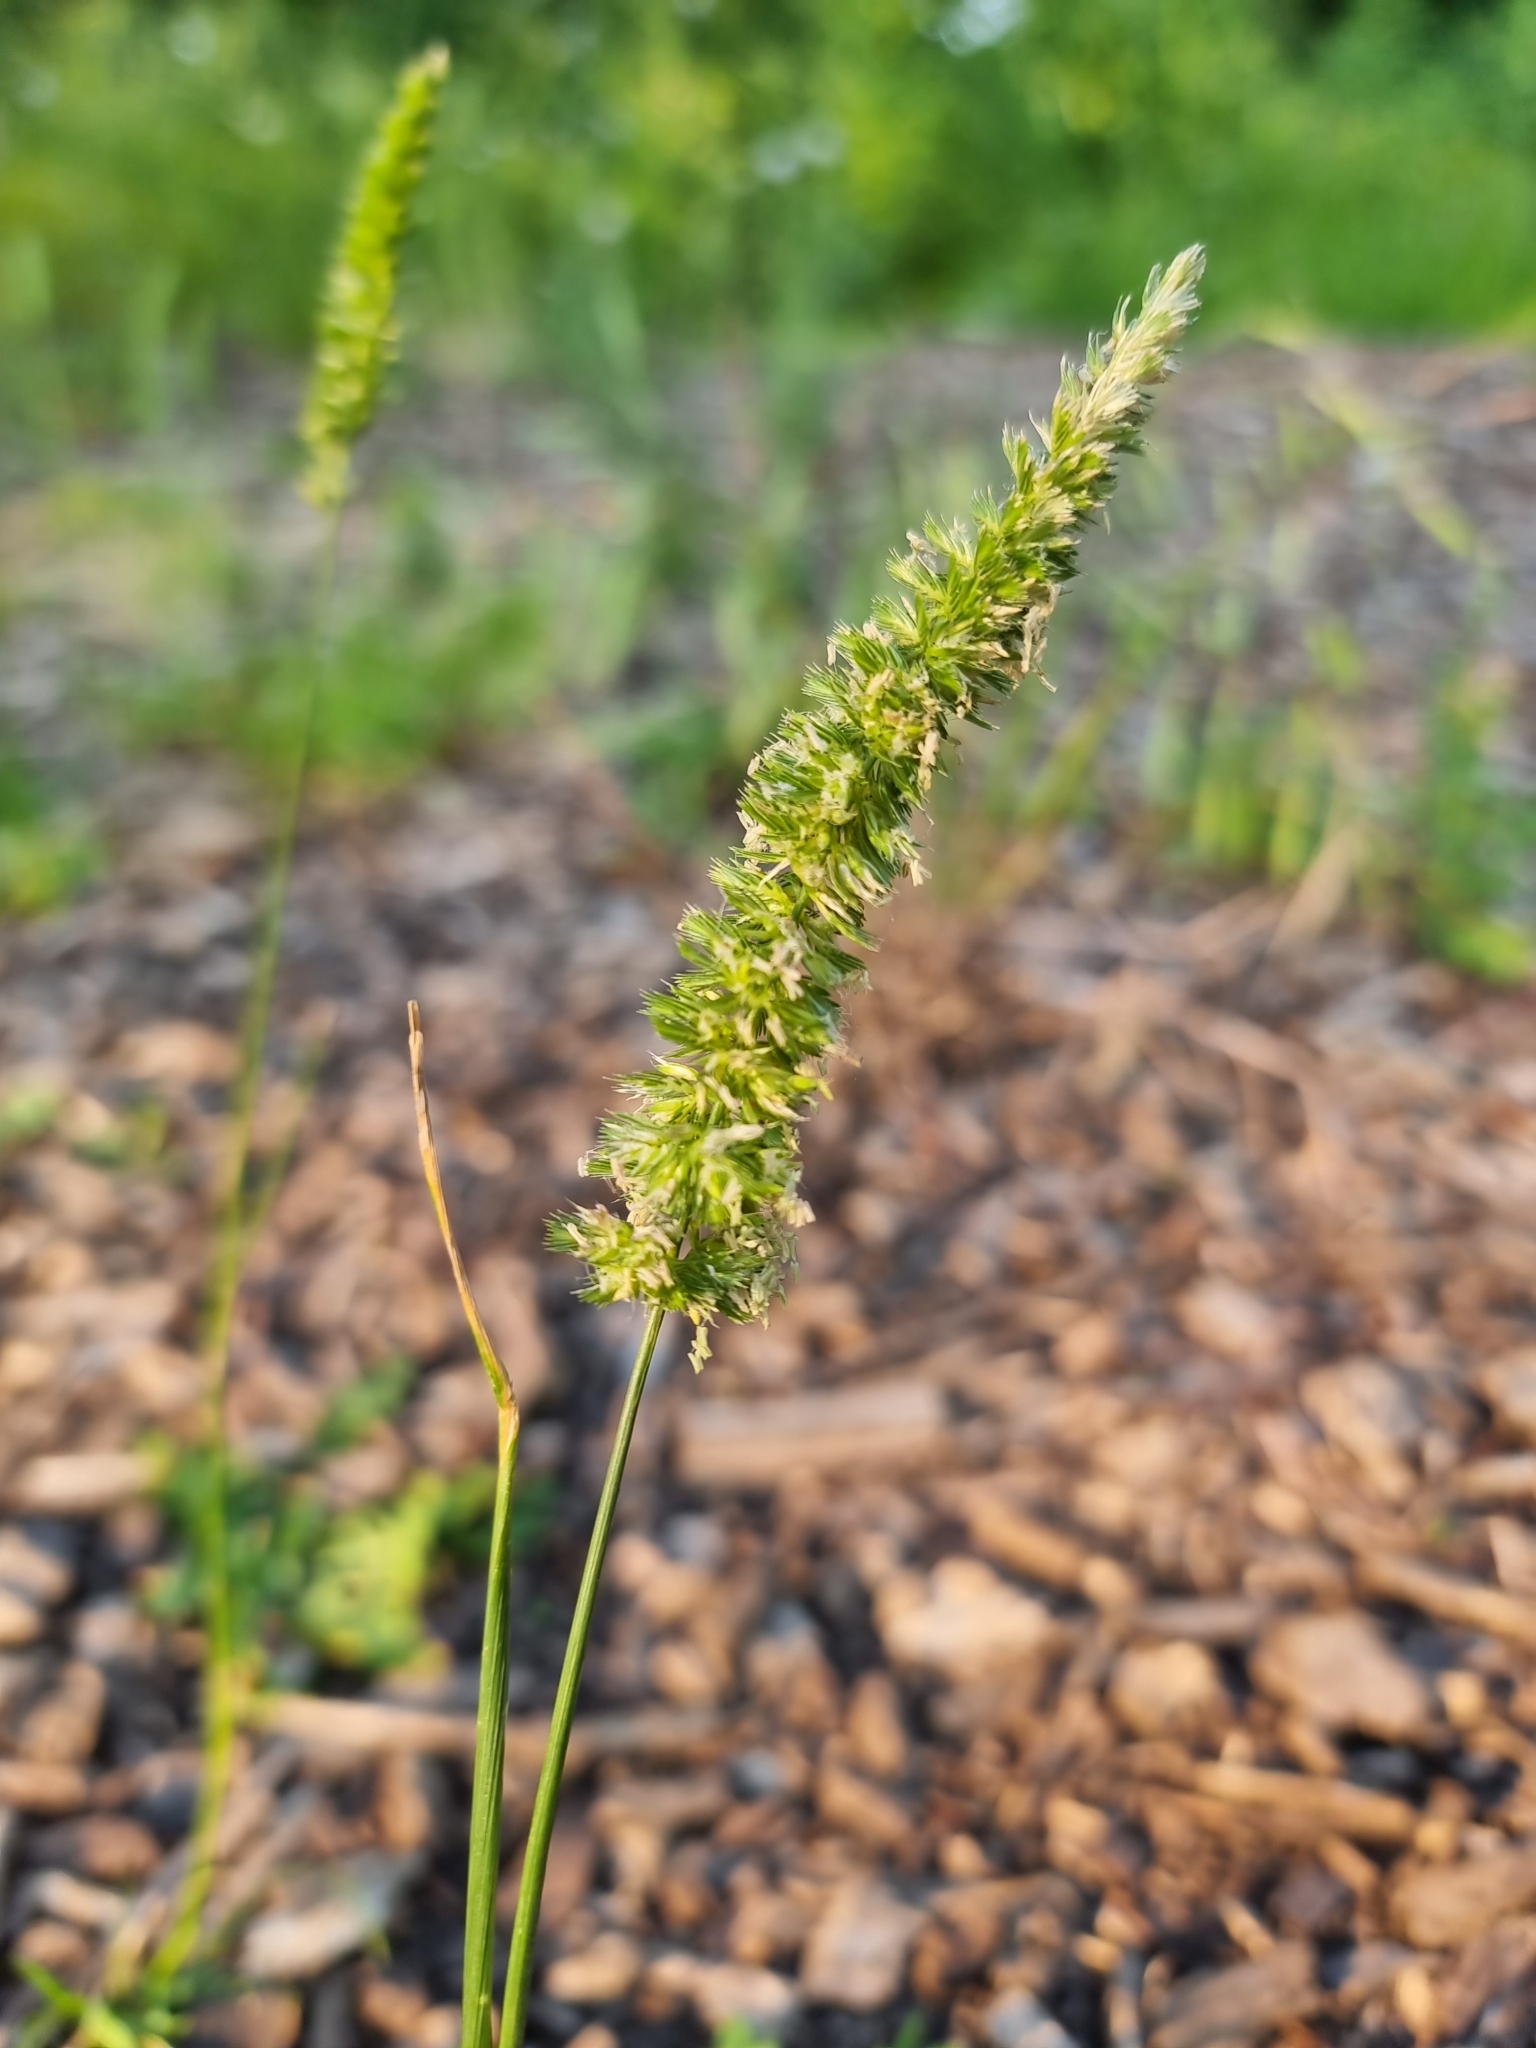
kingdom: Plantae
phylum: Tracheophyta
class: Liliopsida
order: Poales
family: Poaceae
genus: Cynosurus
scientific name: Cynosurus cristatus
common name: Crested dog's-tail
